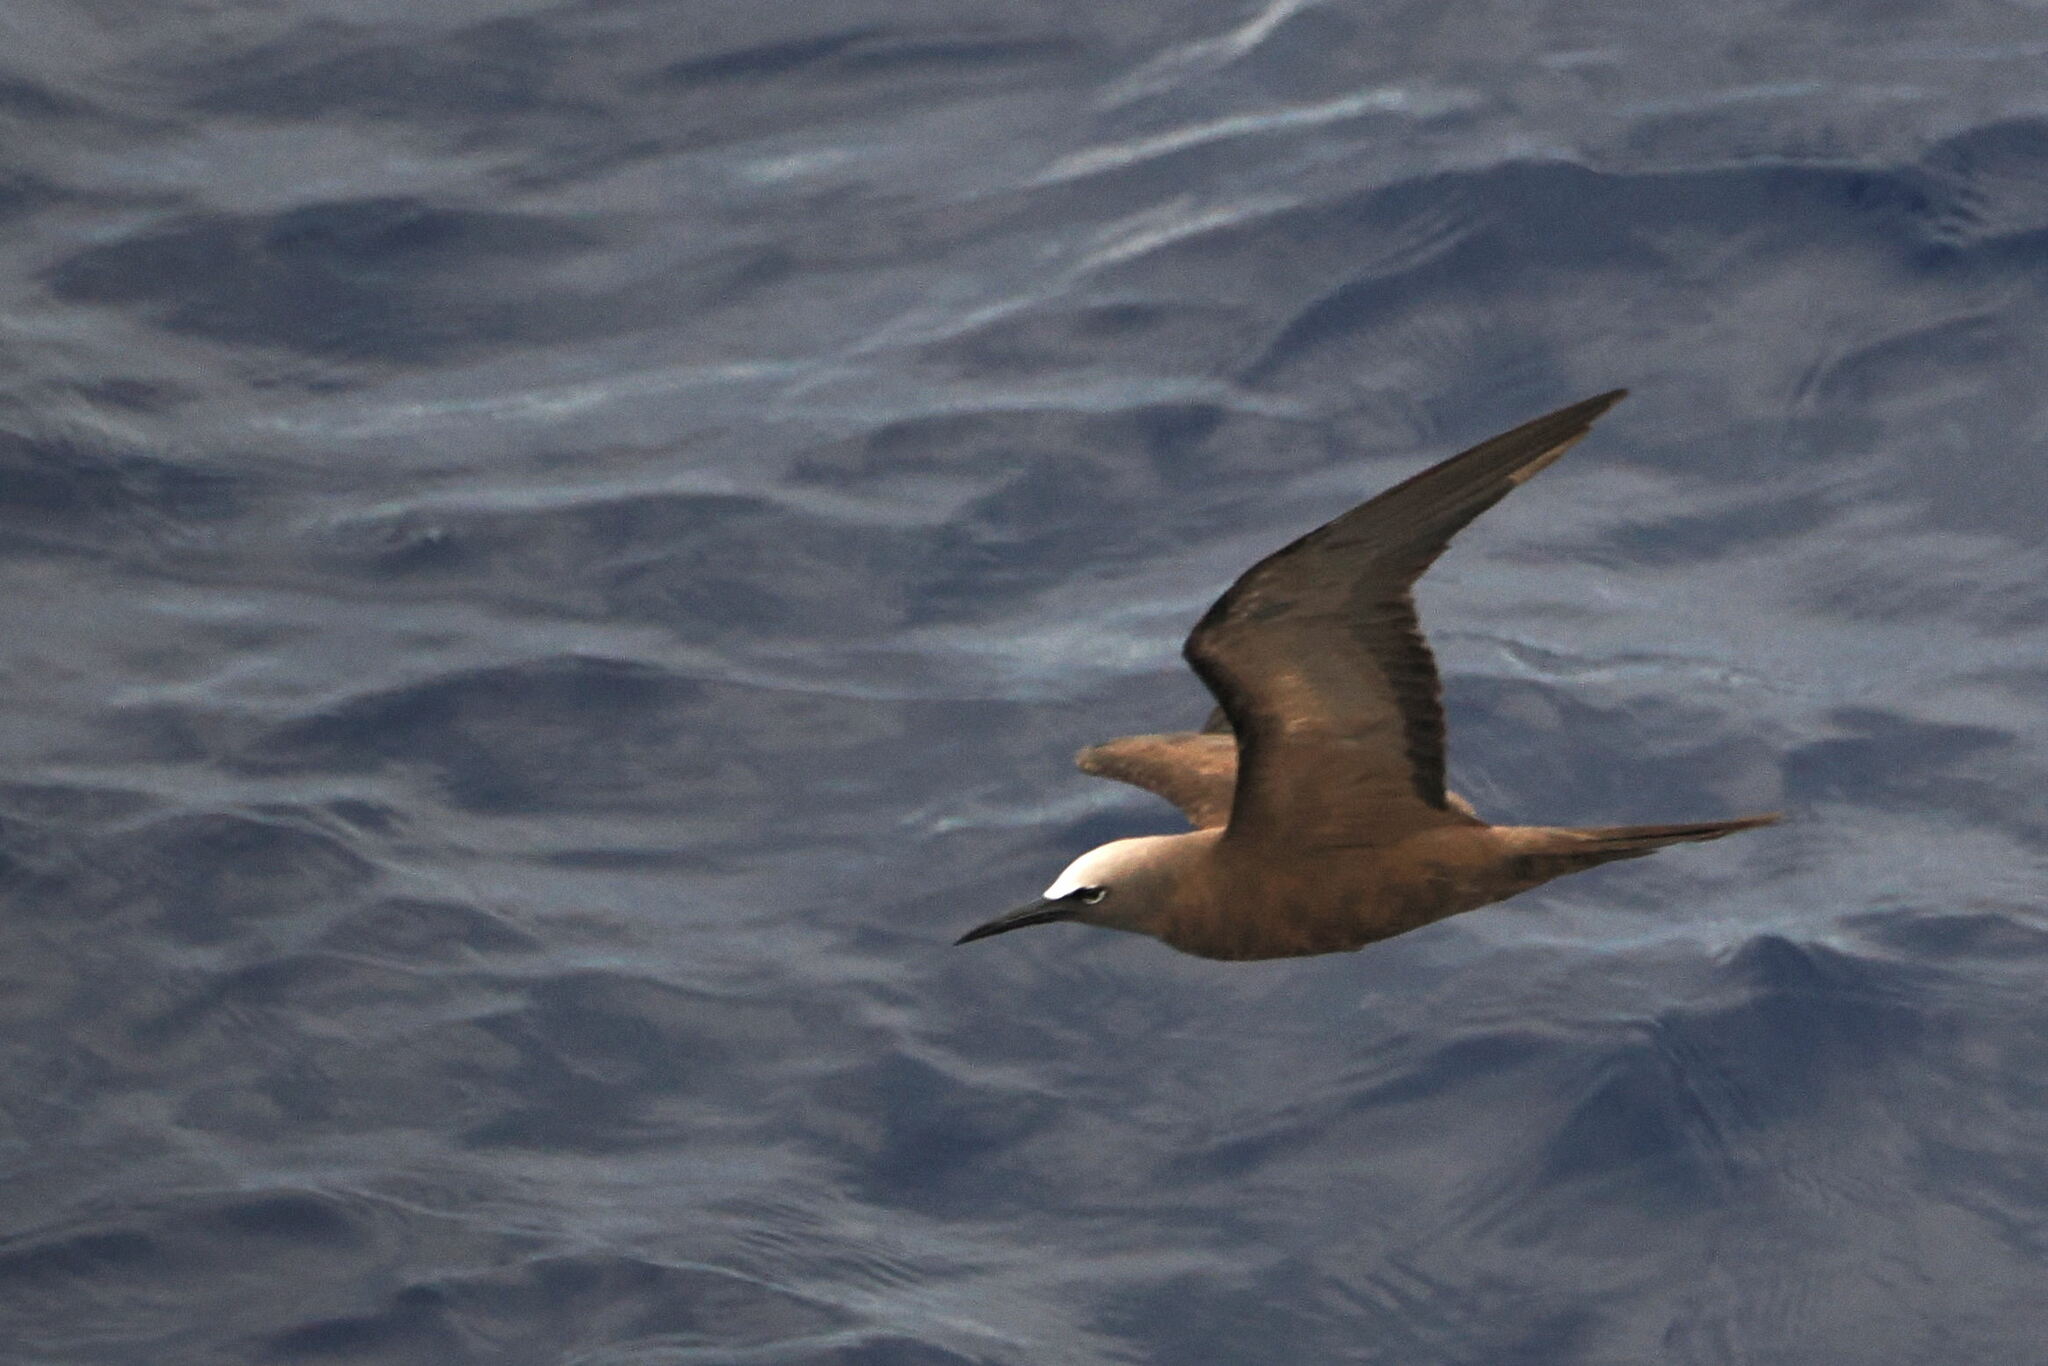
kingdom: Animalia
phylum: Chordata
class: Aves
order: Charadriiformes
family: Laridae
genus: Anous
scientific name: Anous stolidus
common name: Brown noddy
